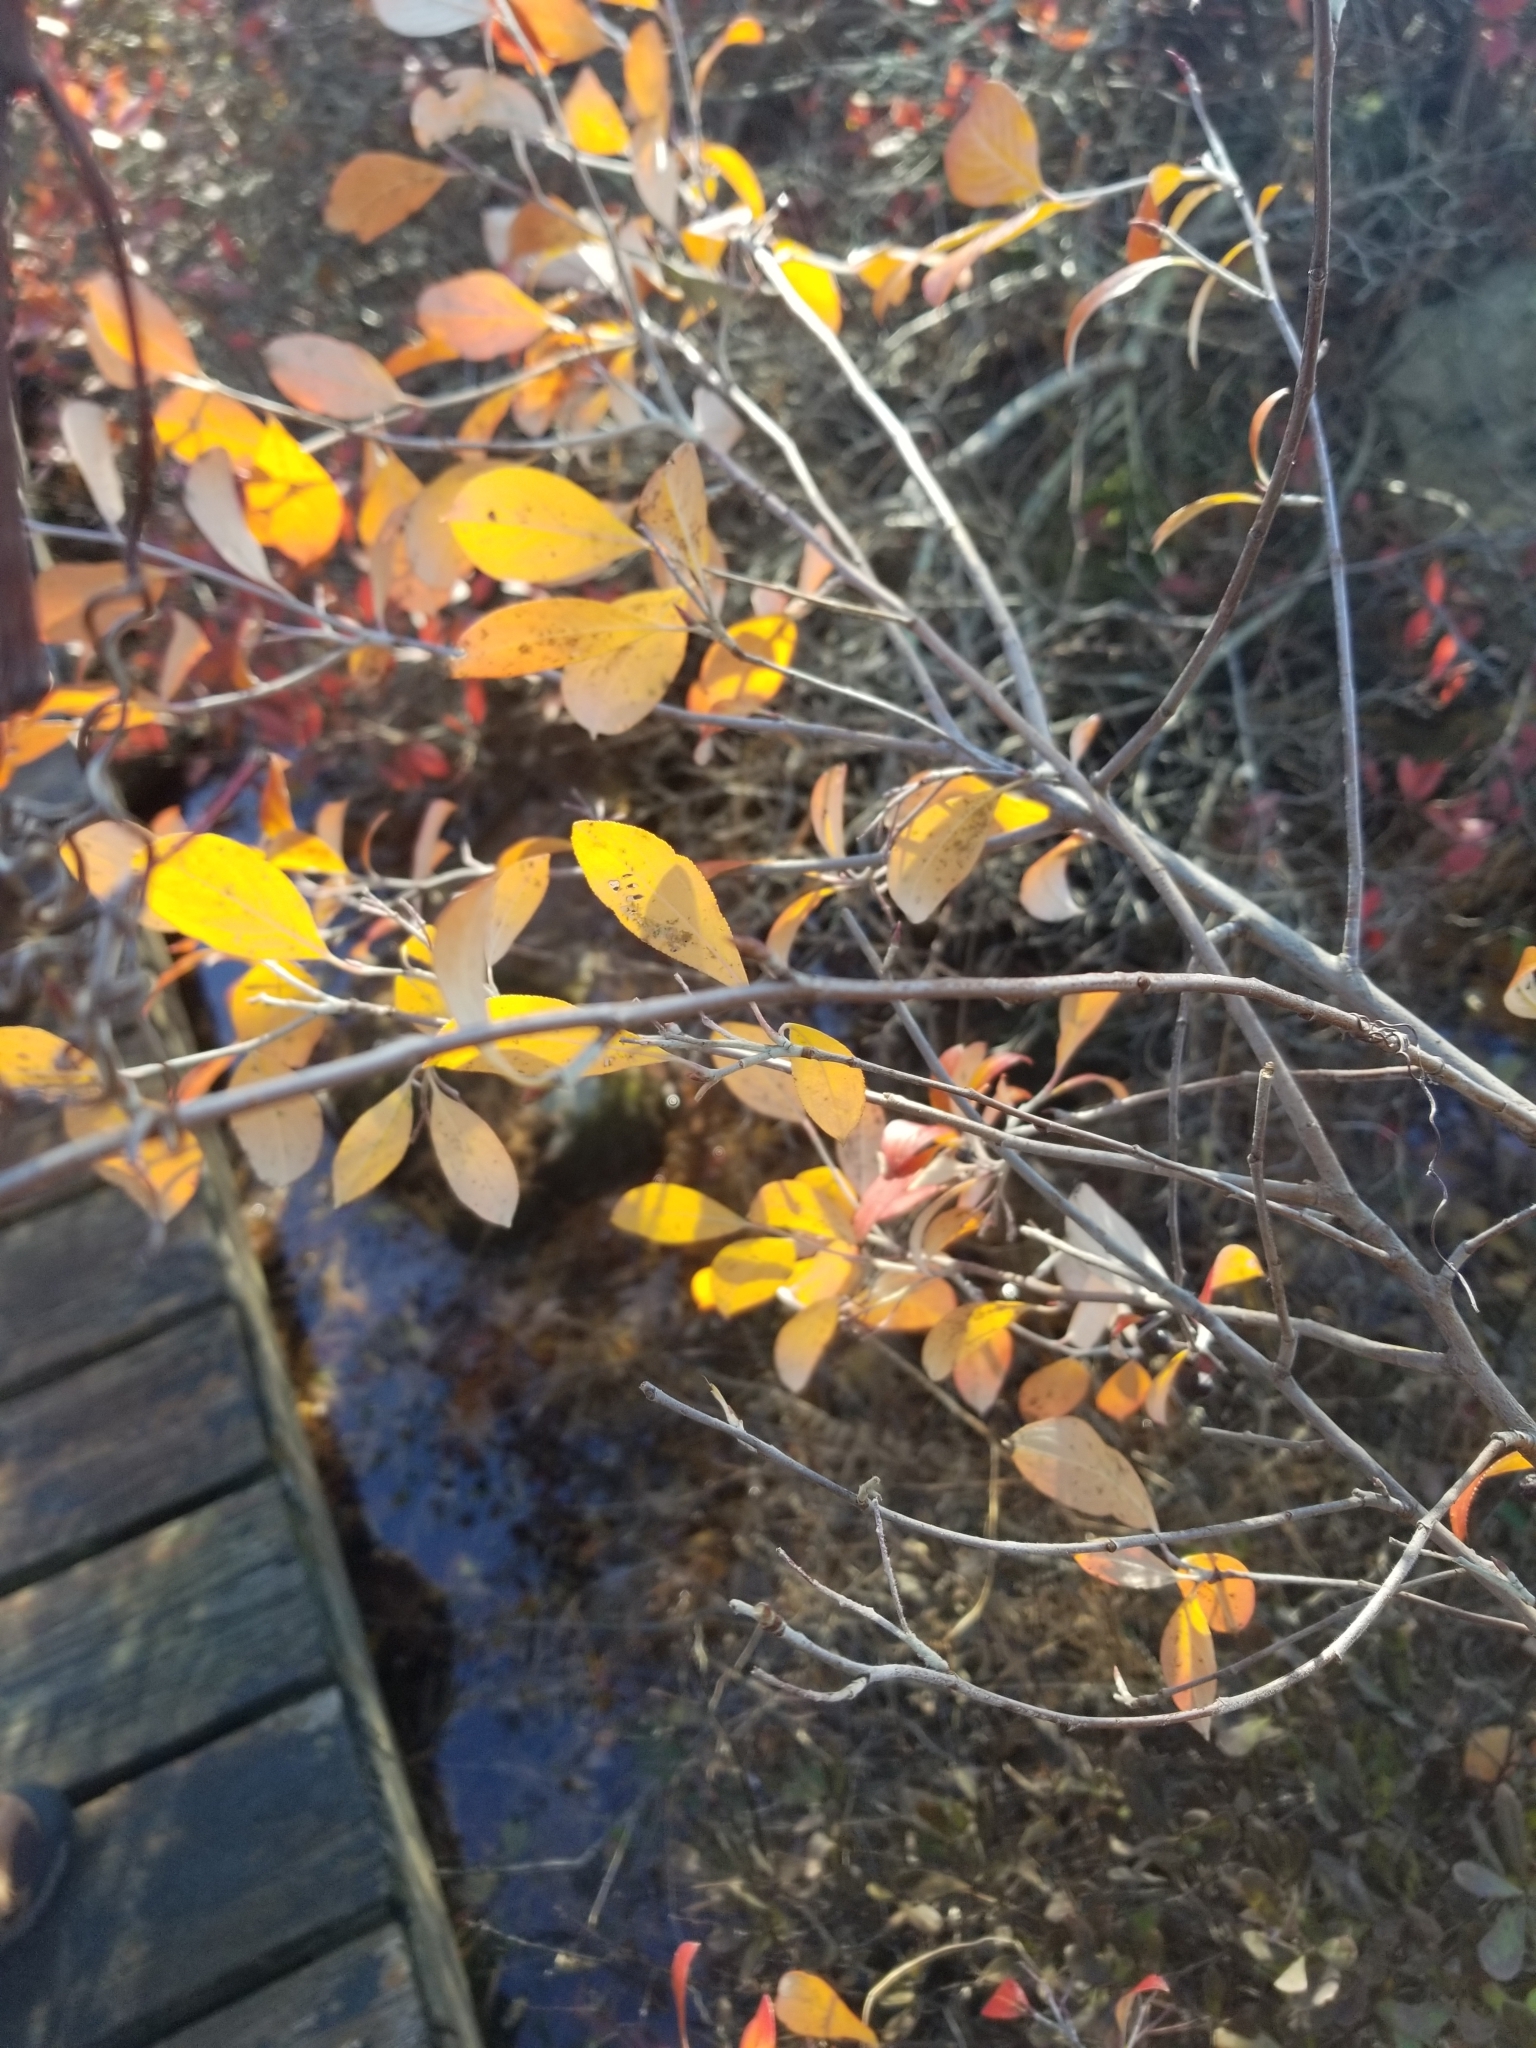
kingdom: Plantae
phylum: Tracheophyta
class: Magnoliopsida
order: Rosales
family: Rosaceae
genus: Aronia
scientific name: Aronia prunifolia
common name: Purple chokeberry
